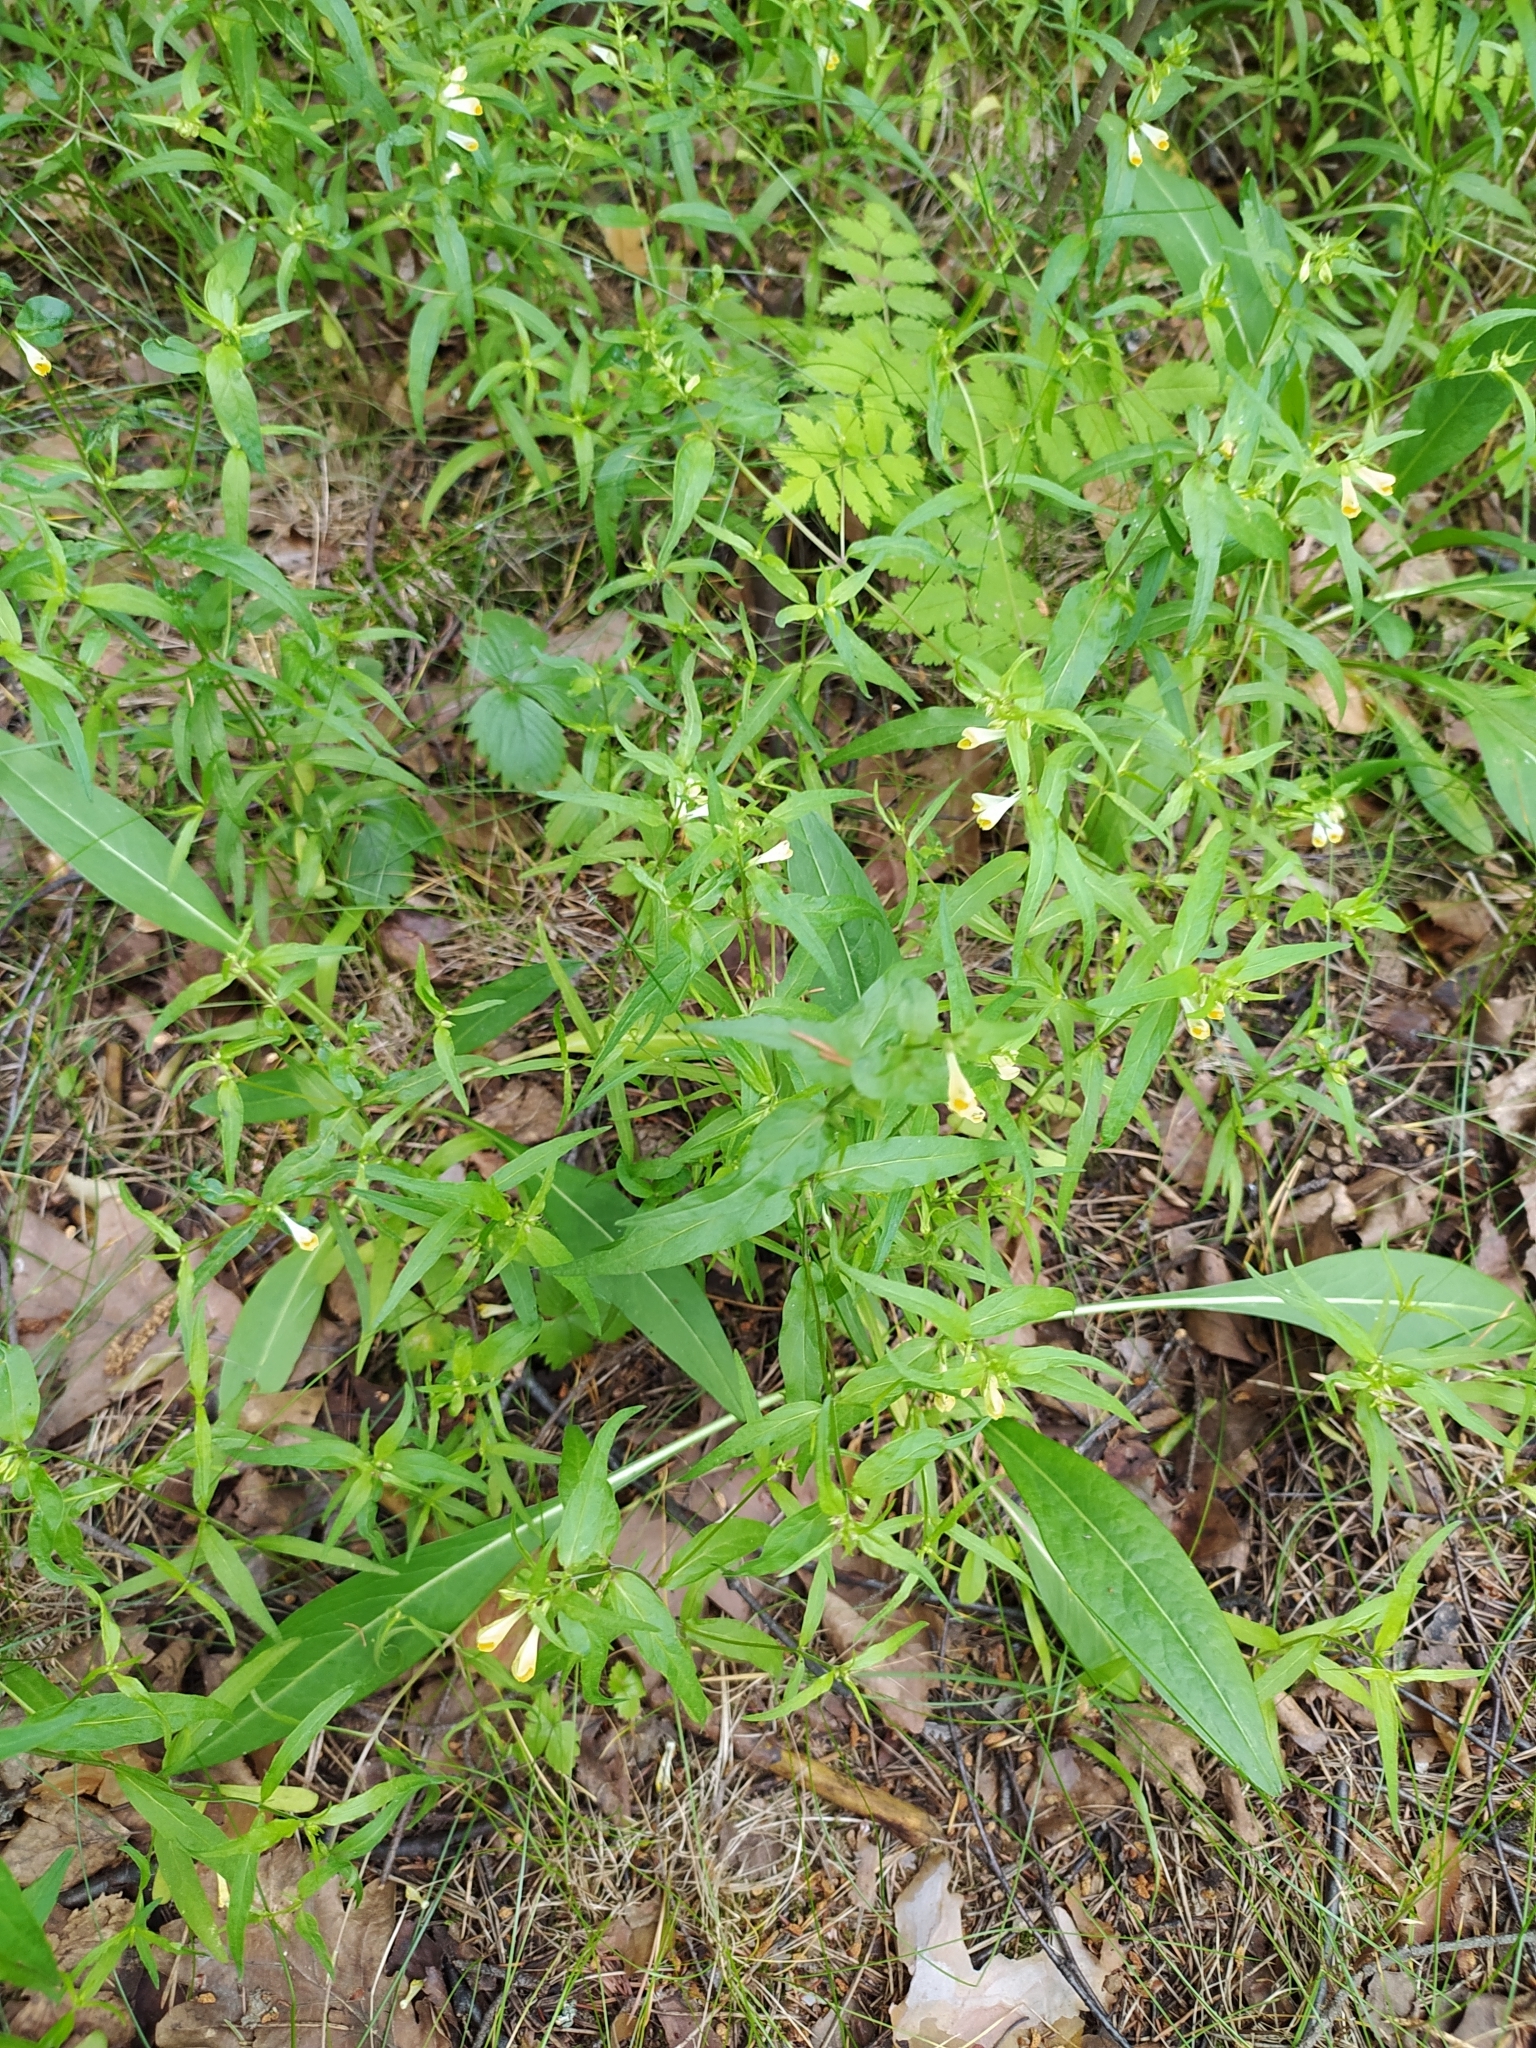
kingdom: Plantae
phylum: Tracheophyta
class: Magnoliopsida
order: Lamiales
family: Orobanchaceae
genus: Melampyrum
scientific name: Melampyrum pratense
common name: Common cow-wheat
